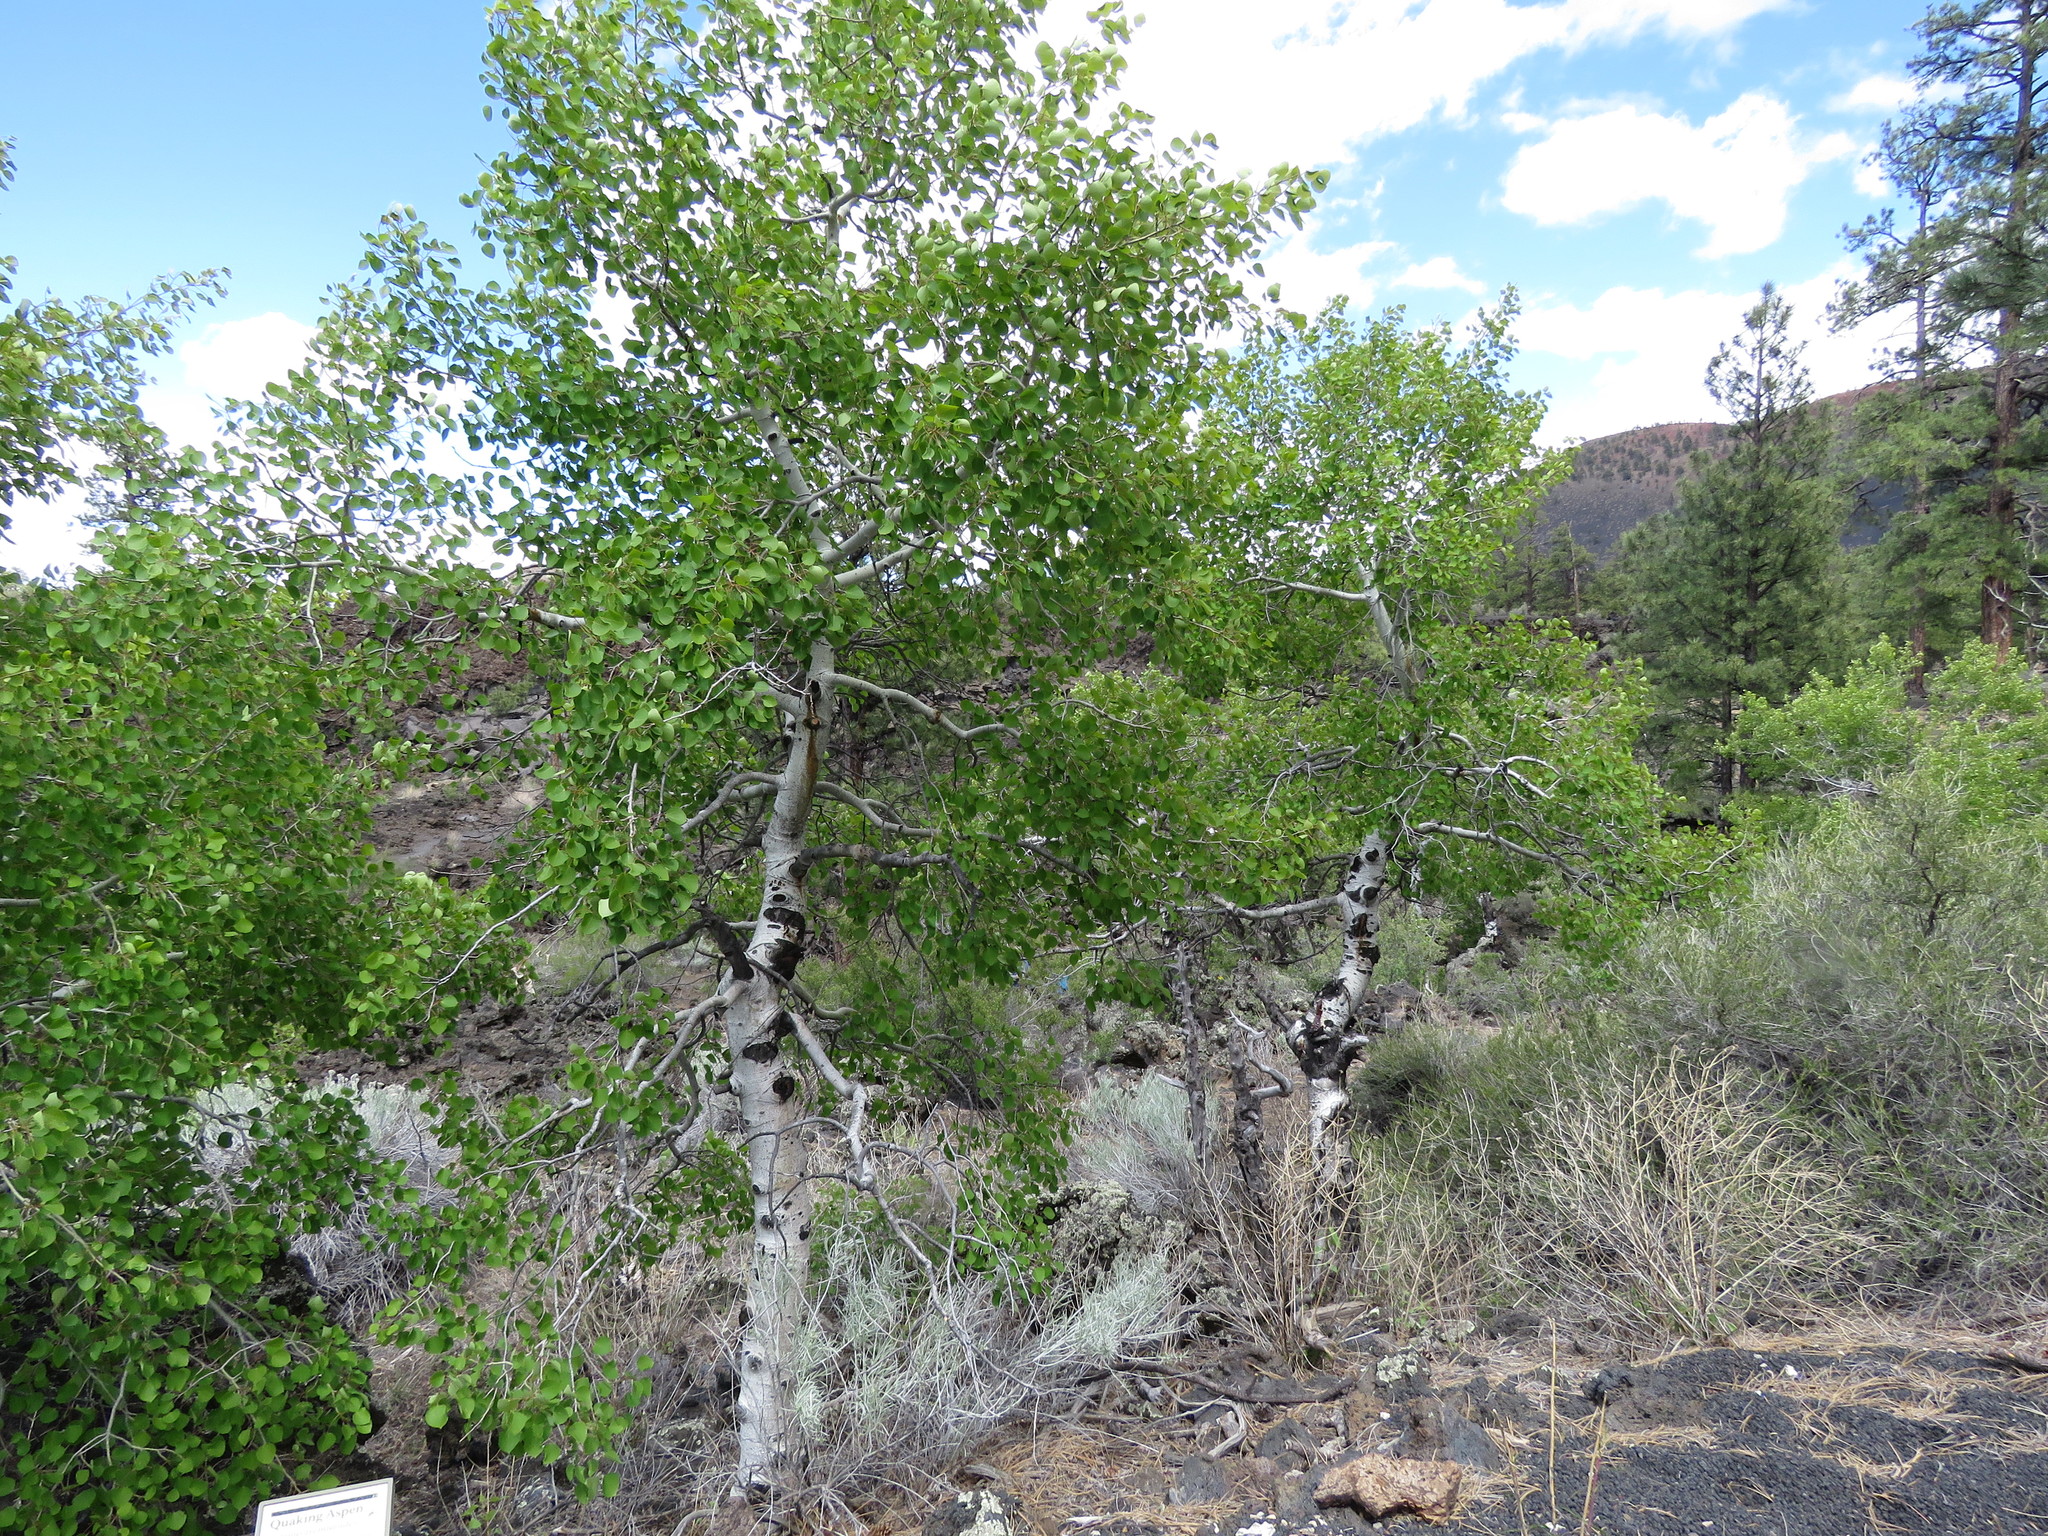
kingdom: Plantae
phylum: Tracheophyta
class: Magnoliopsida
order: Malpighiales
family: Salicaceae
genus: Populus
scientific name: Populus tremuloides
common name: Quaking aspen
